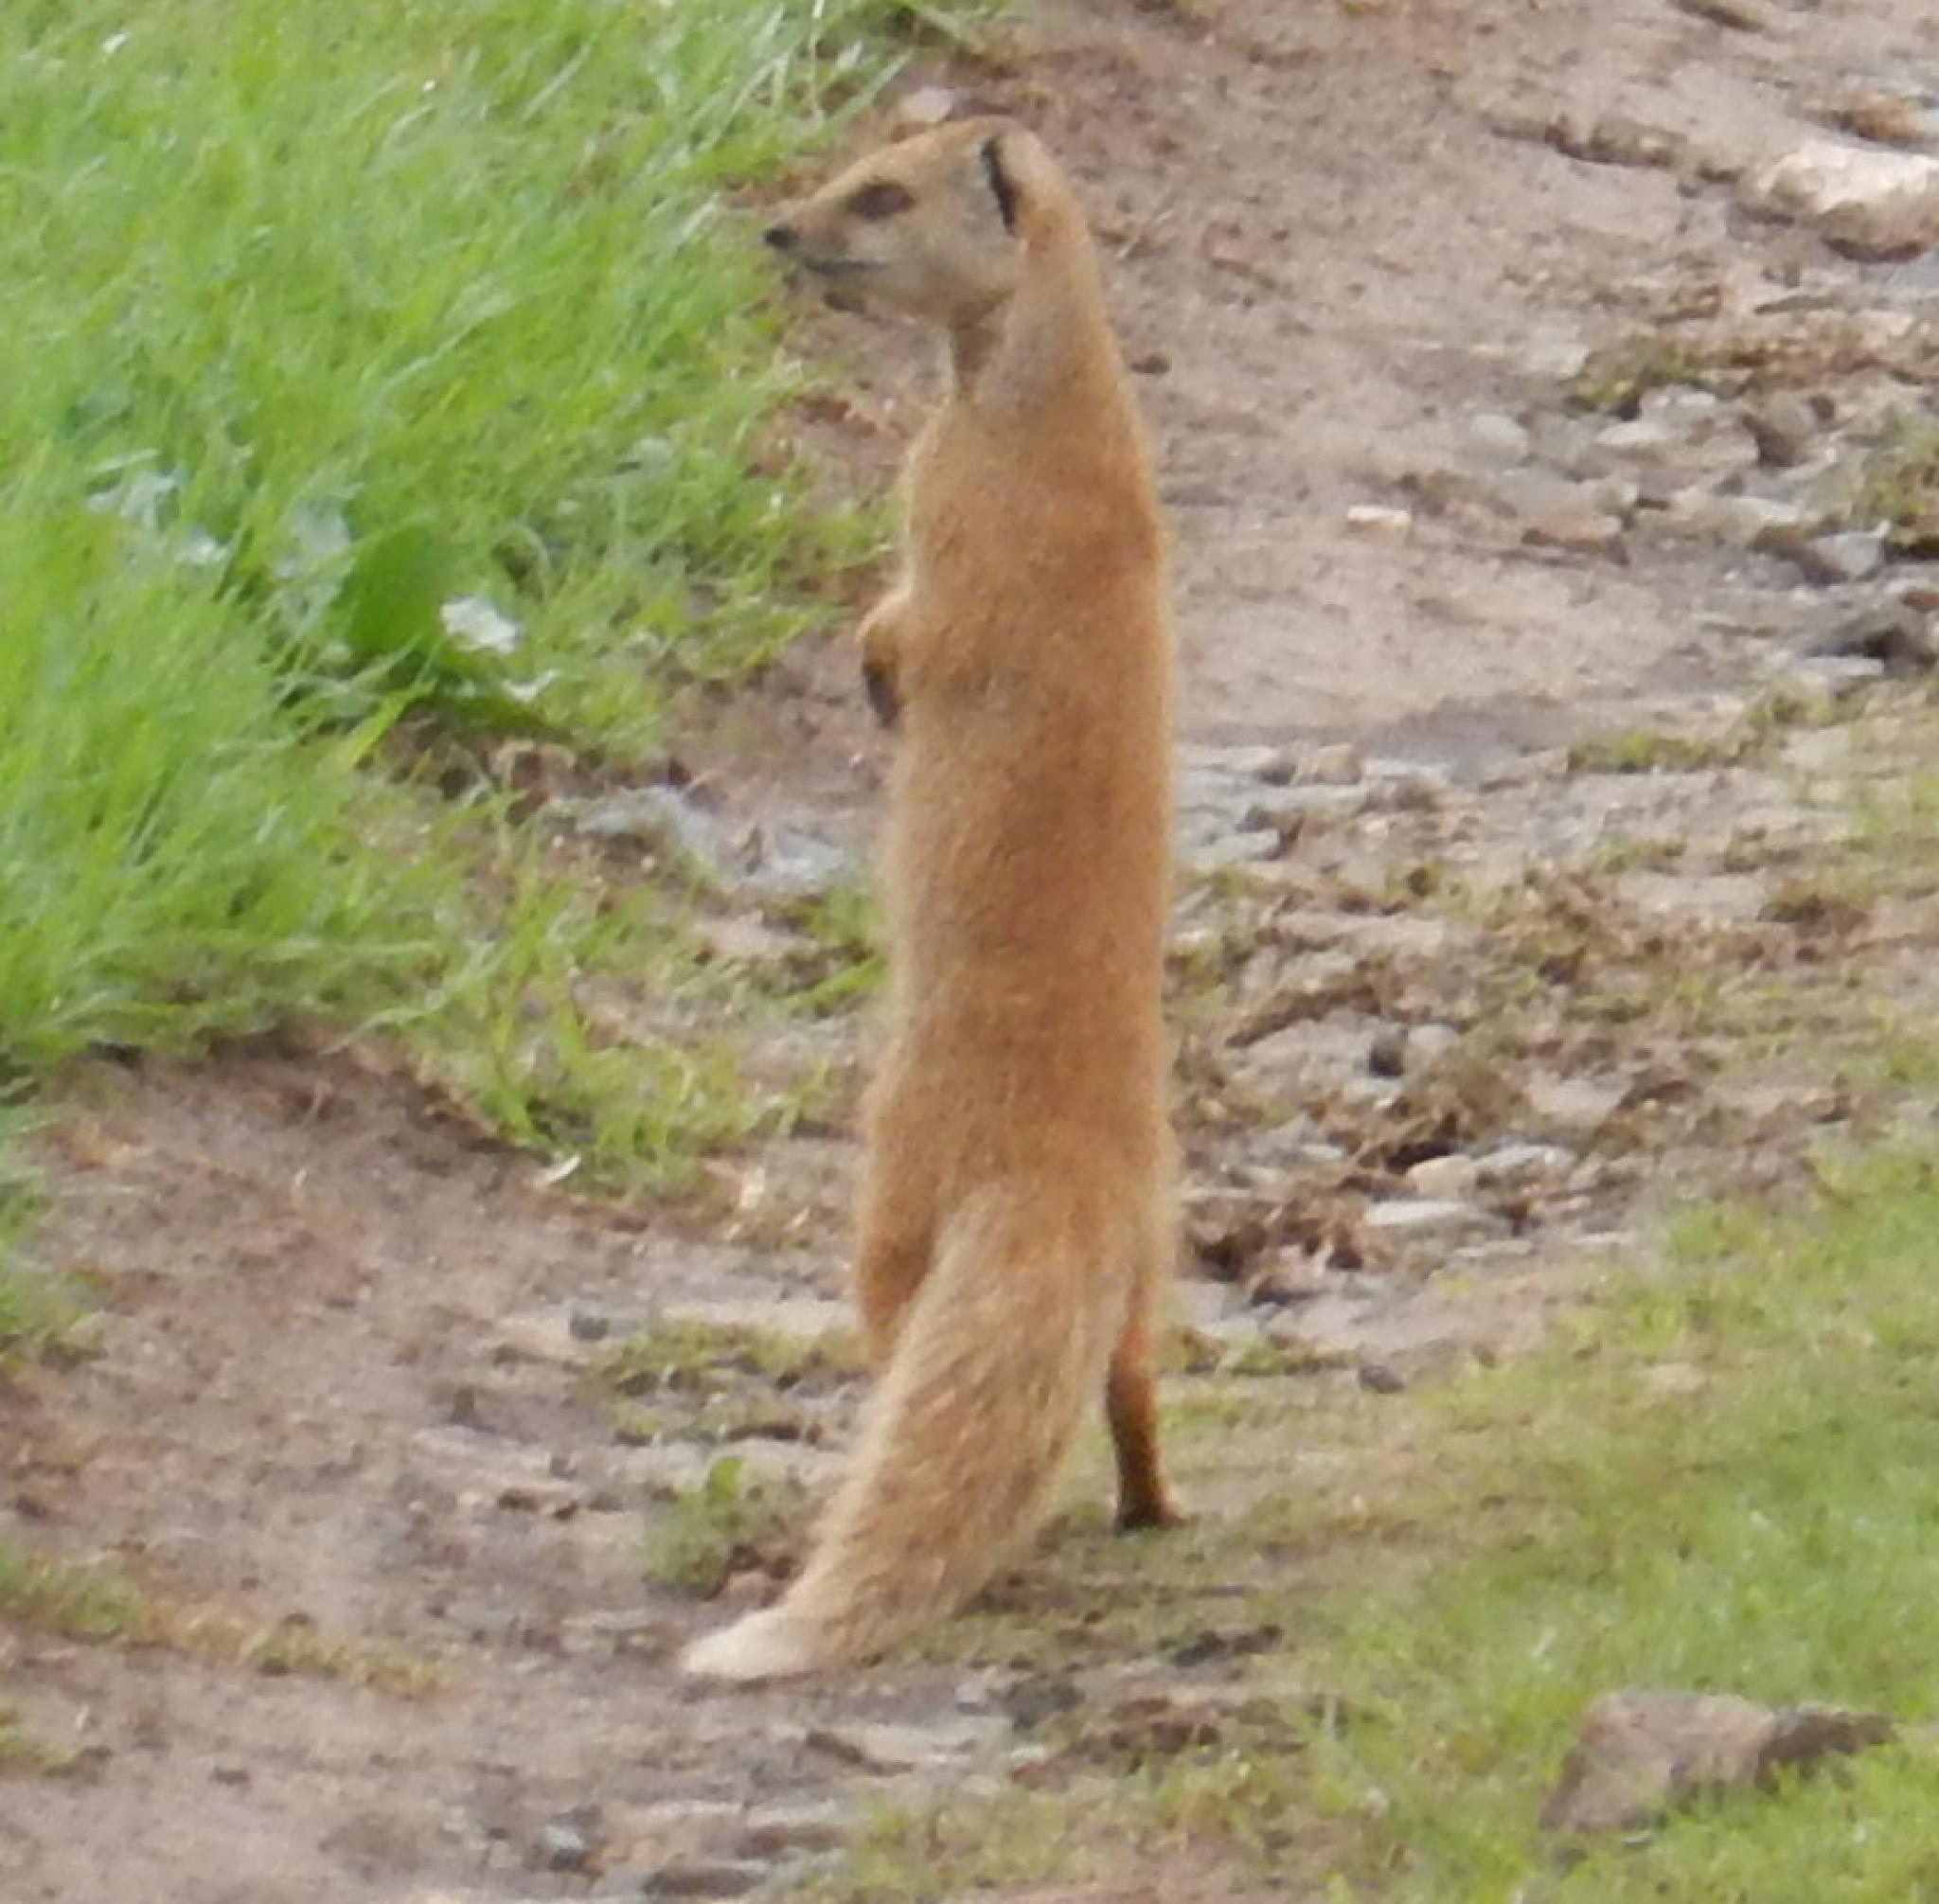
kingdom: Animalia
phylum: Chordata
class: Mammalia
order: Carnivora
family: Herpestidae
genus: Cynictis
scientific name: Cynictis penicillata
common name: Yellow mongoose
